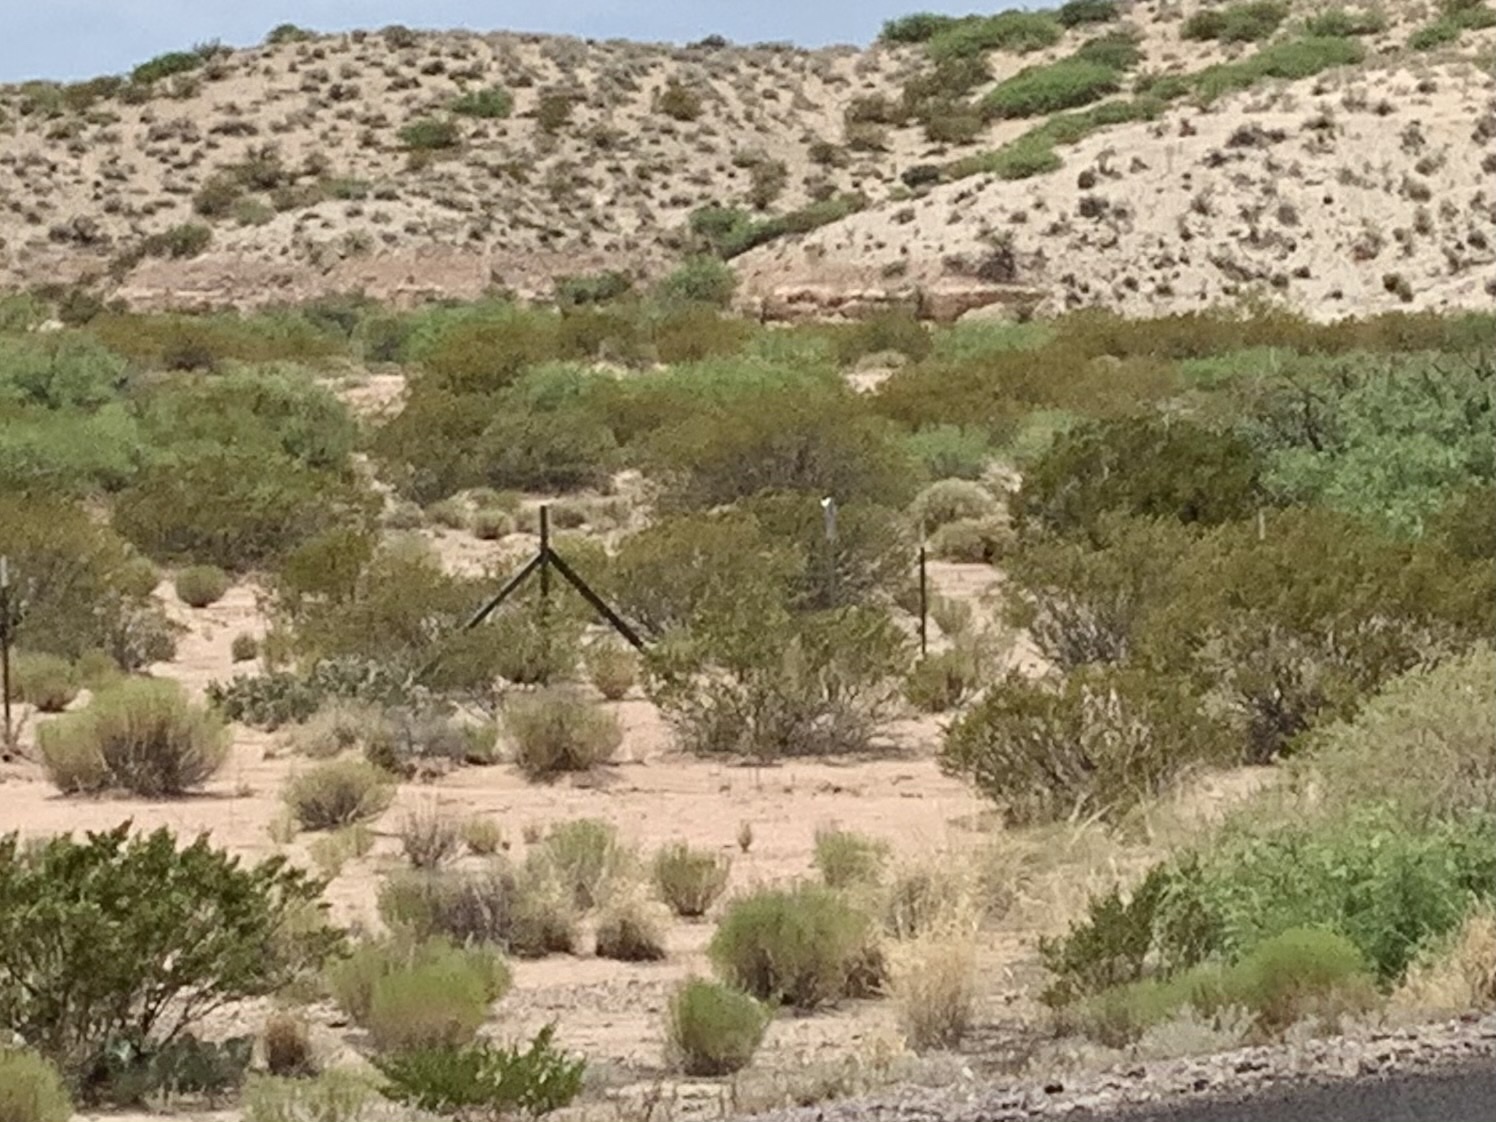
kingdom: Plantae
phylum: Tracheophyta
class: Magnoliopsida
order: Zygophyllales
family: Zygophyllaceae
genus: Larrea
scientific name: Larrea tridentata
